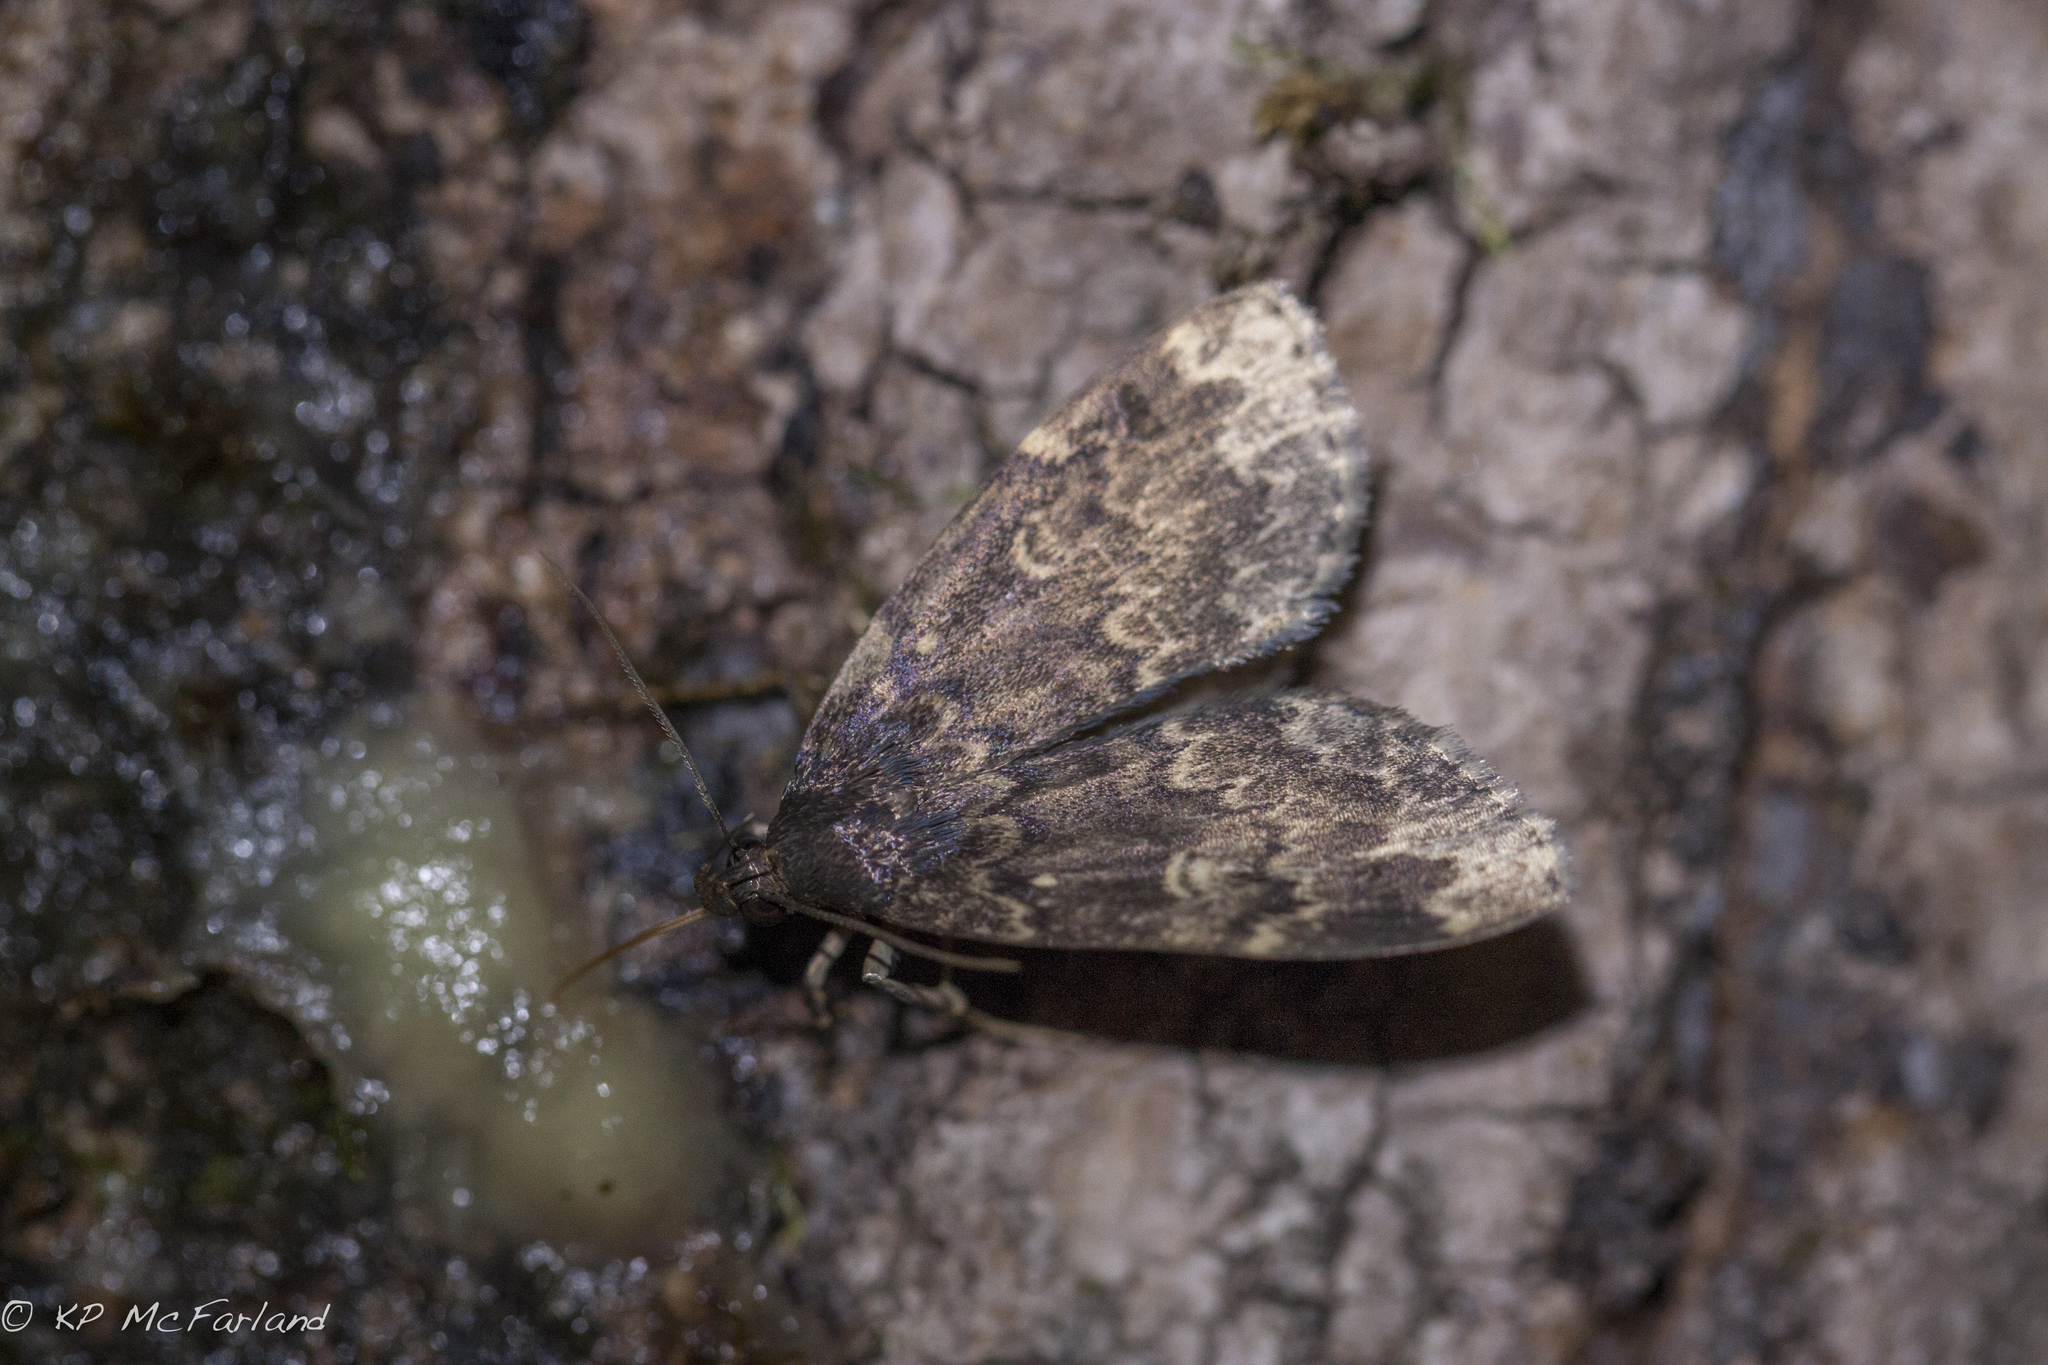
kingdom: Animalia
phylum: Arthropoda
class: Insecta
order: Lepidoptera
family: Erebidae
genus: Idia
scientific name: Idia lubricalis
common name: Twin-striped tabby
